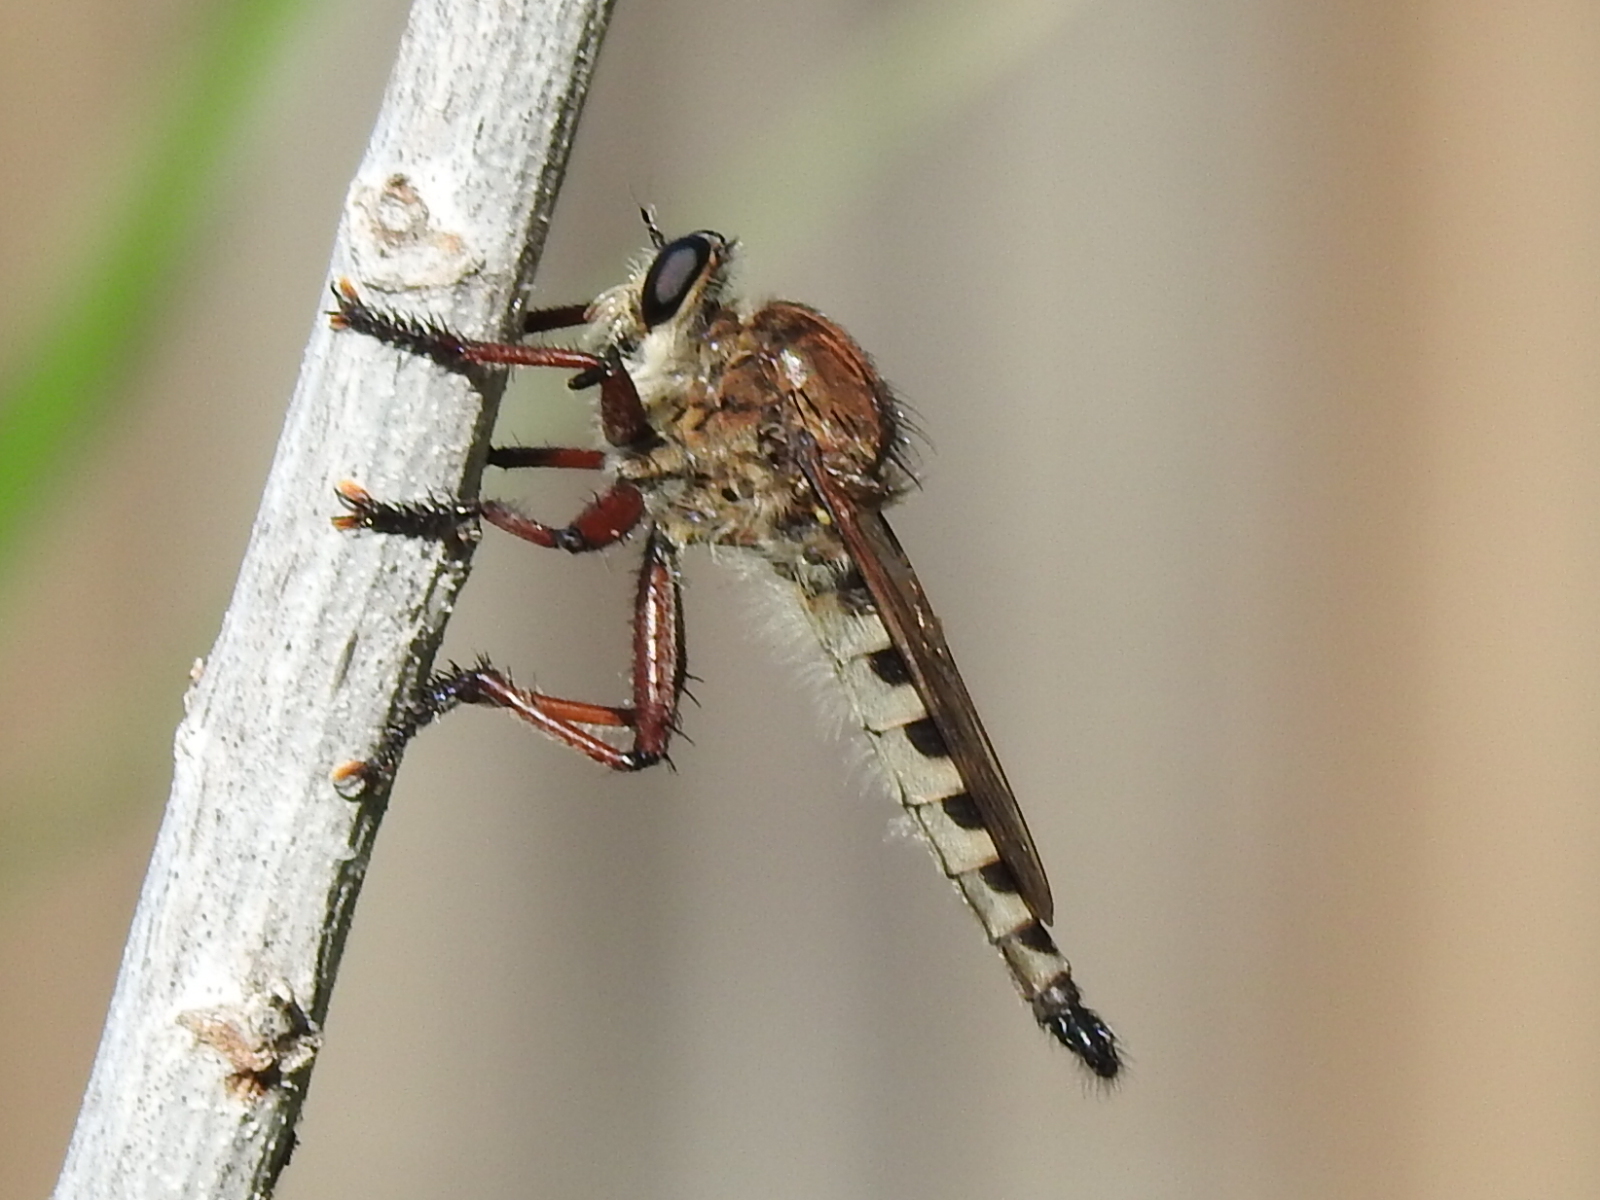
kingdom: Animalia
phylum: Arthropoda
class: Insecta
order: Diptera
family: Asilidae
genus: Promachus
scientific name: Promachus hinei
